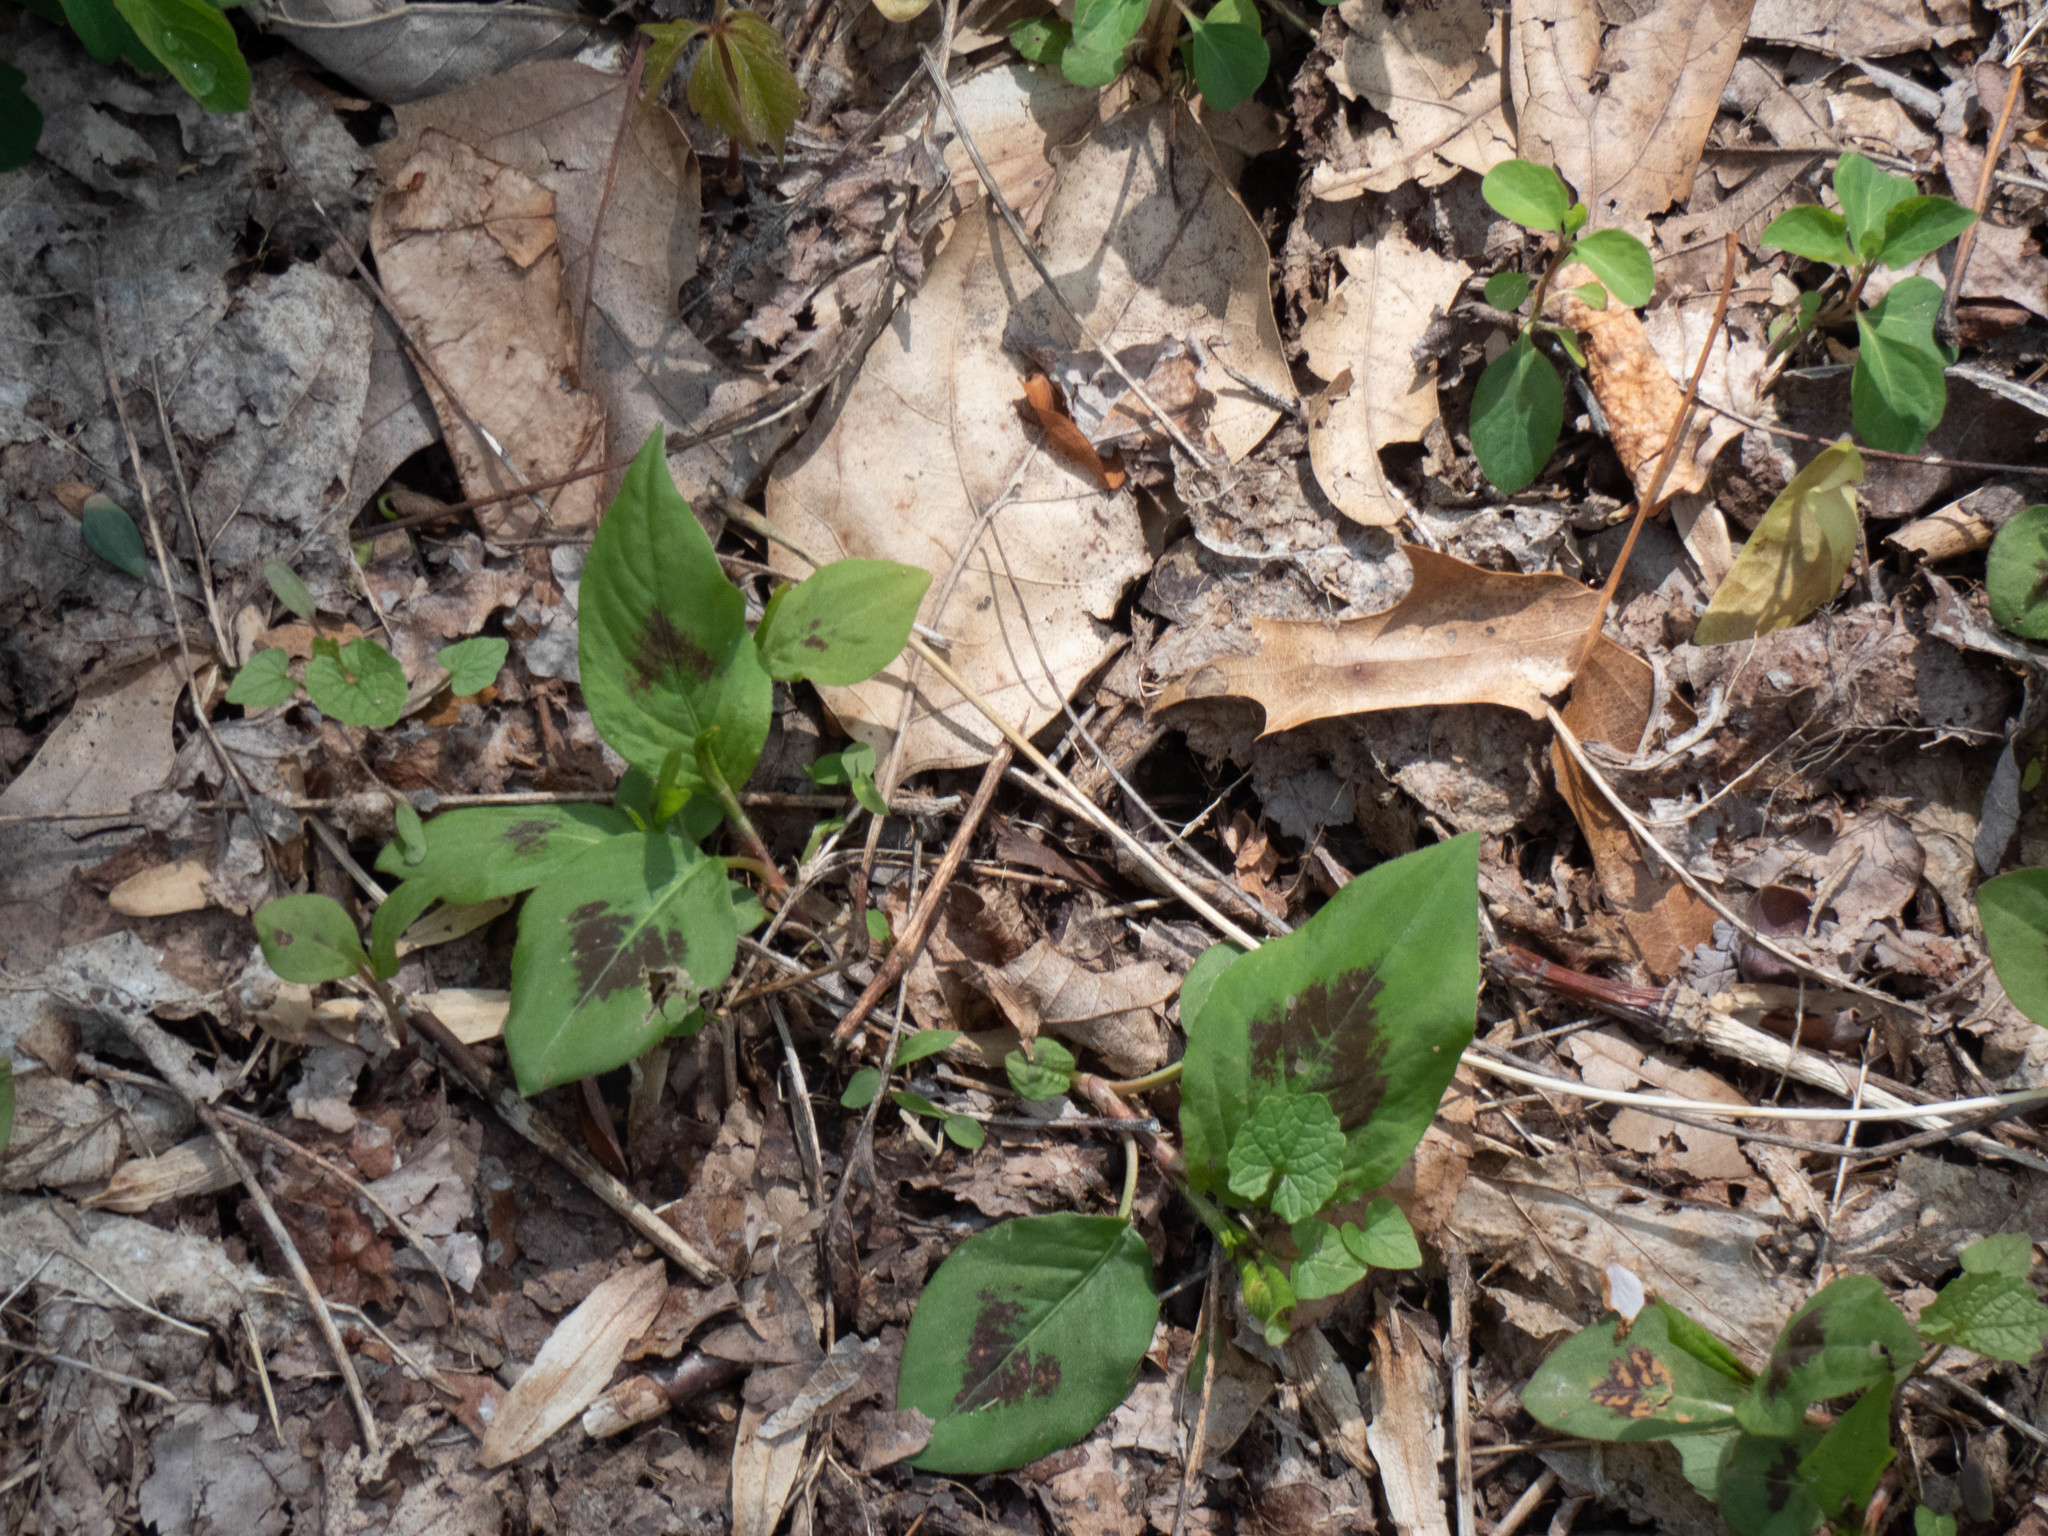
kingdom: Plantae
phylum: Tracheophyta
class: Magnoliopsida
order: Caryophyllales
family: Polygonaceae
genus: Persicaria
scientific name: Persicaria virginiana
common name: Jumpseed
